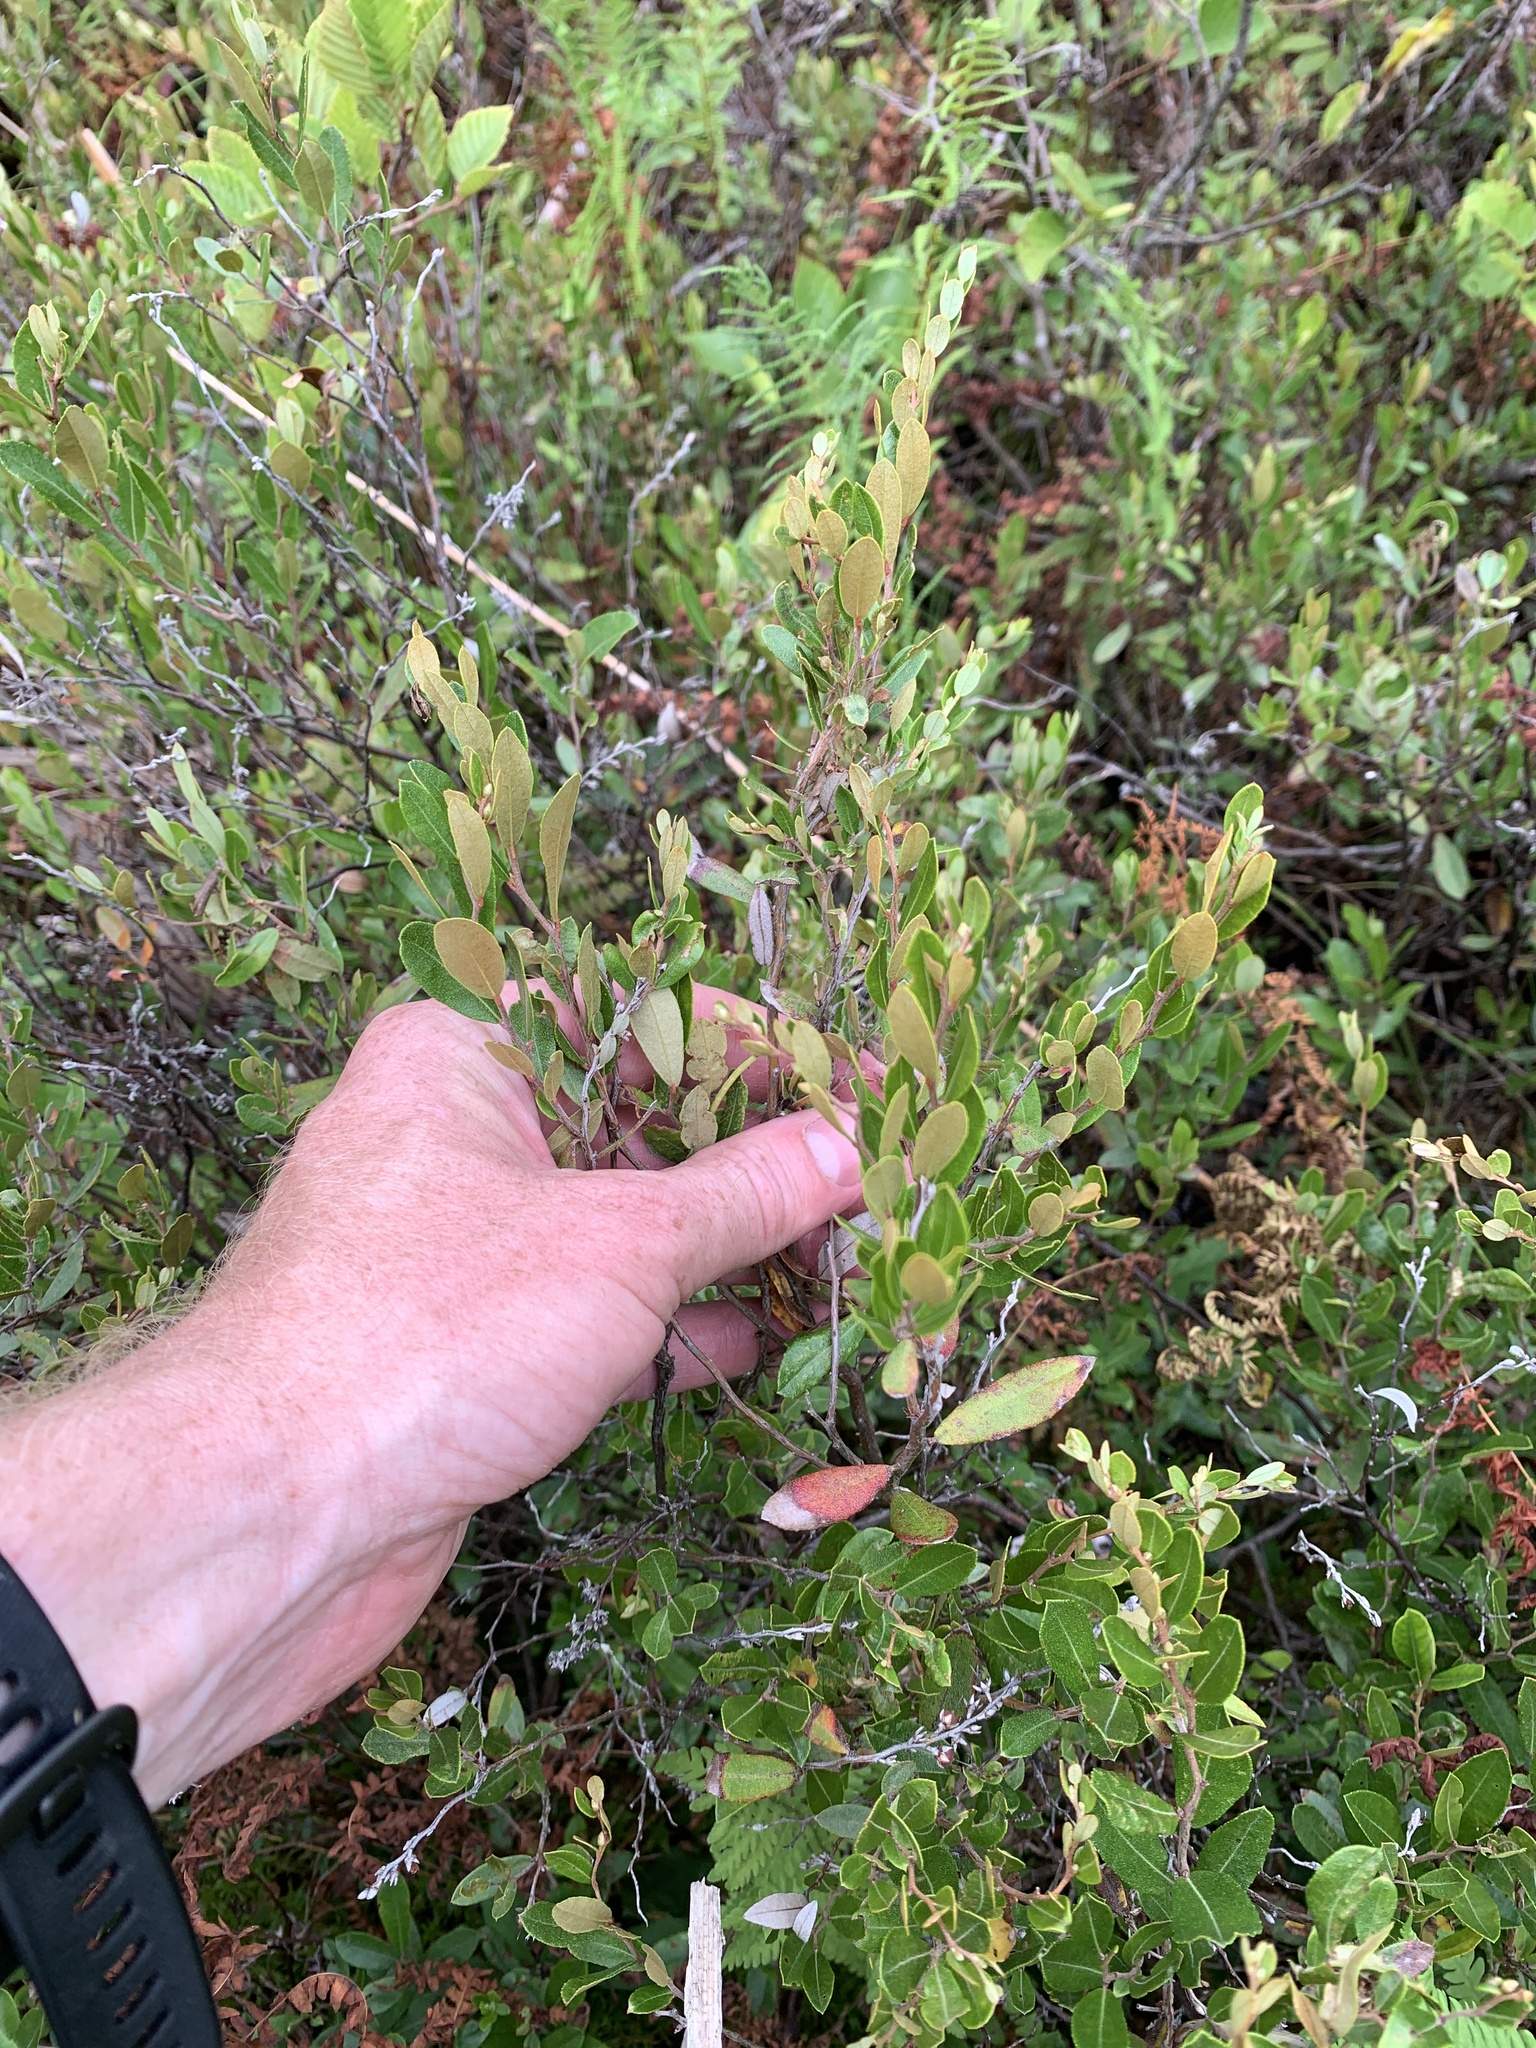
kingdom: Plantae
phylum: Tracheophyta
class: Magnoliopsida
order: Ericales
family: Ericaceae
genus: Chamaedaphne
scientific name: Chamaedaphne calyculata
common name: Leatherleaf
